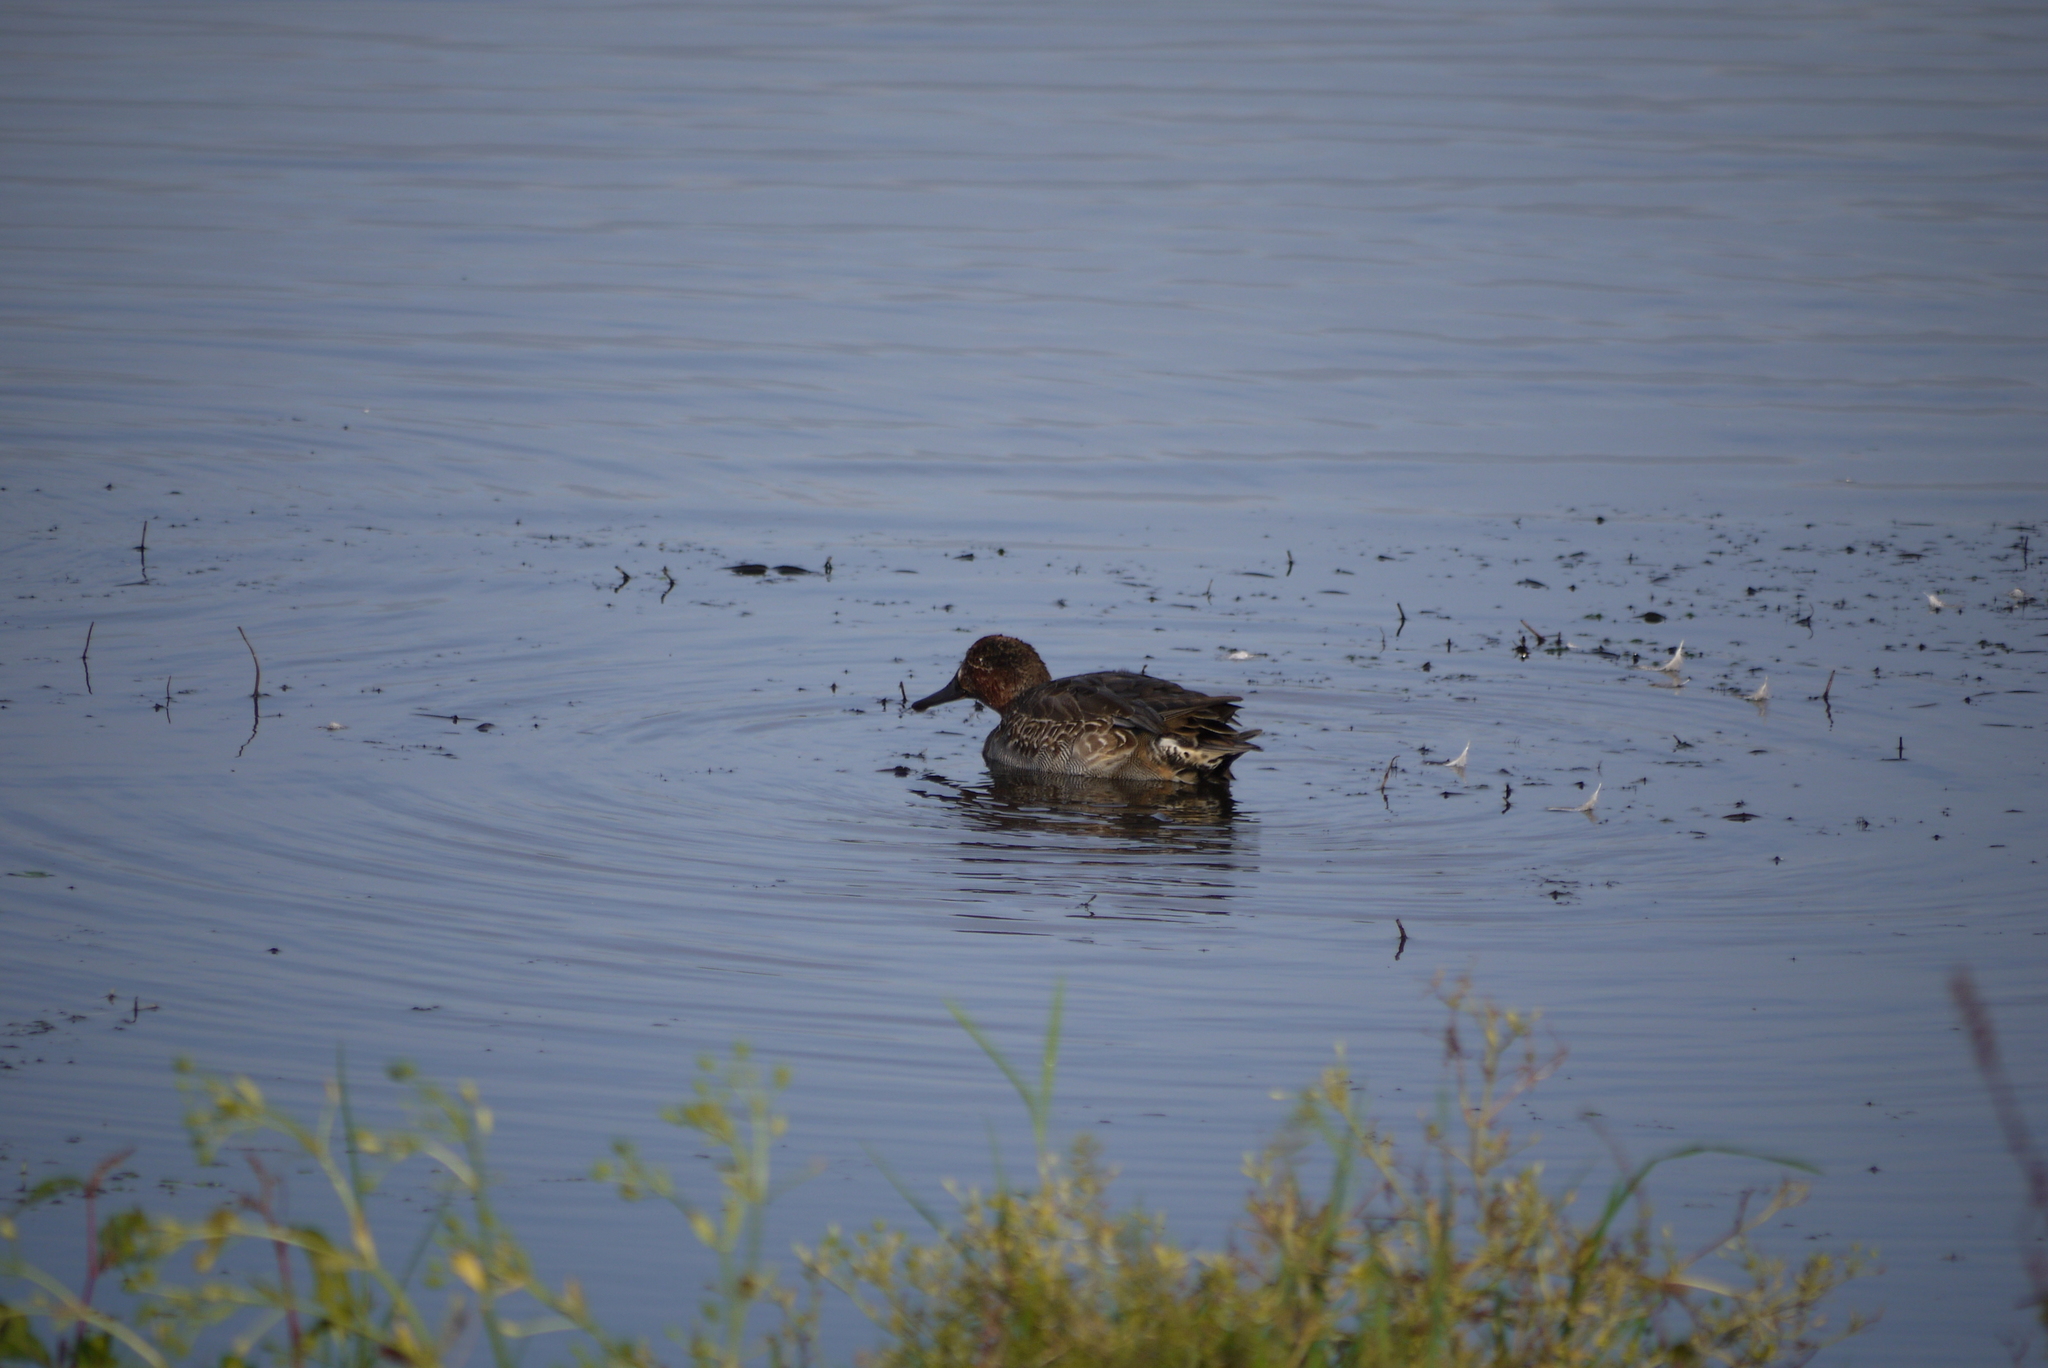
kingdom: Animalia
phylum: Chordata
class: Aves
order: Anseriformes
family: Anatidae
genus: Anas
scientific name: Anas crecca
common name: Eurasian teal
